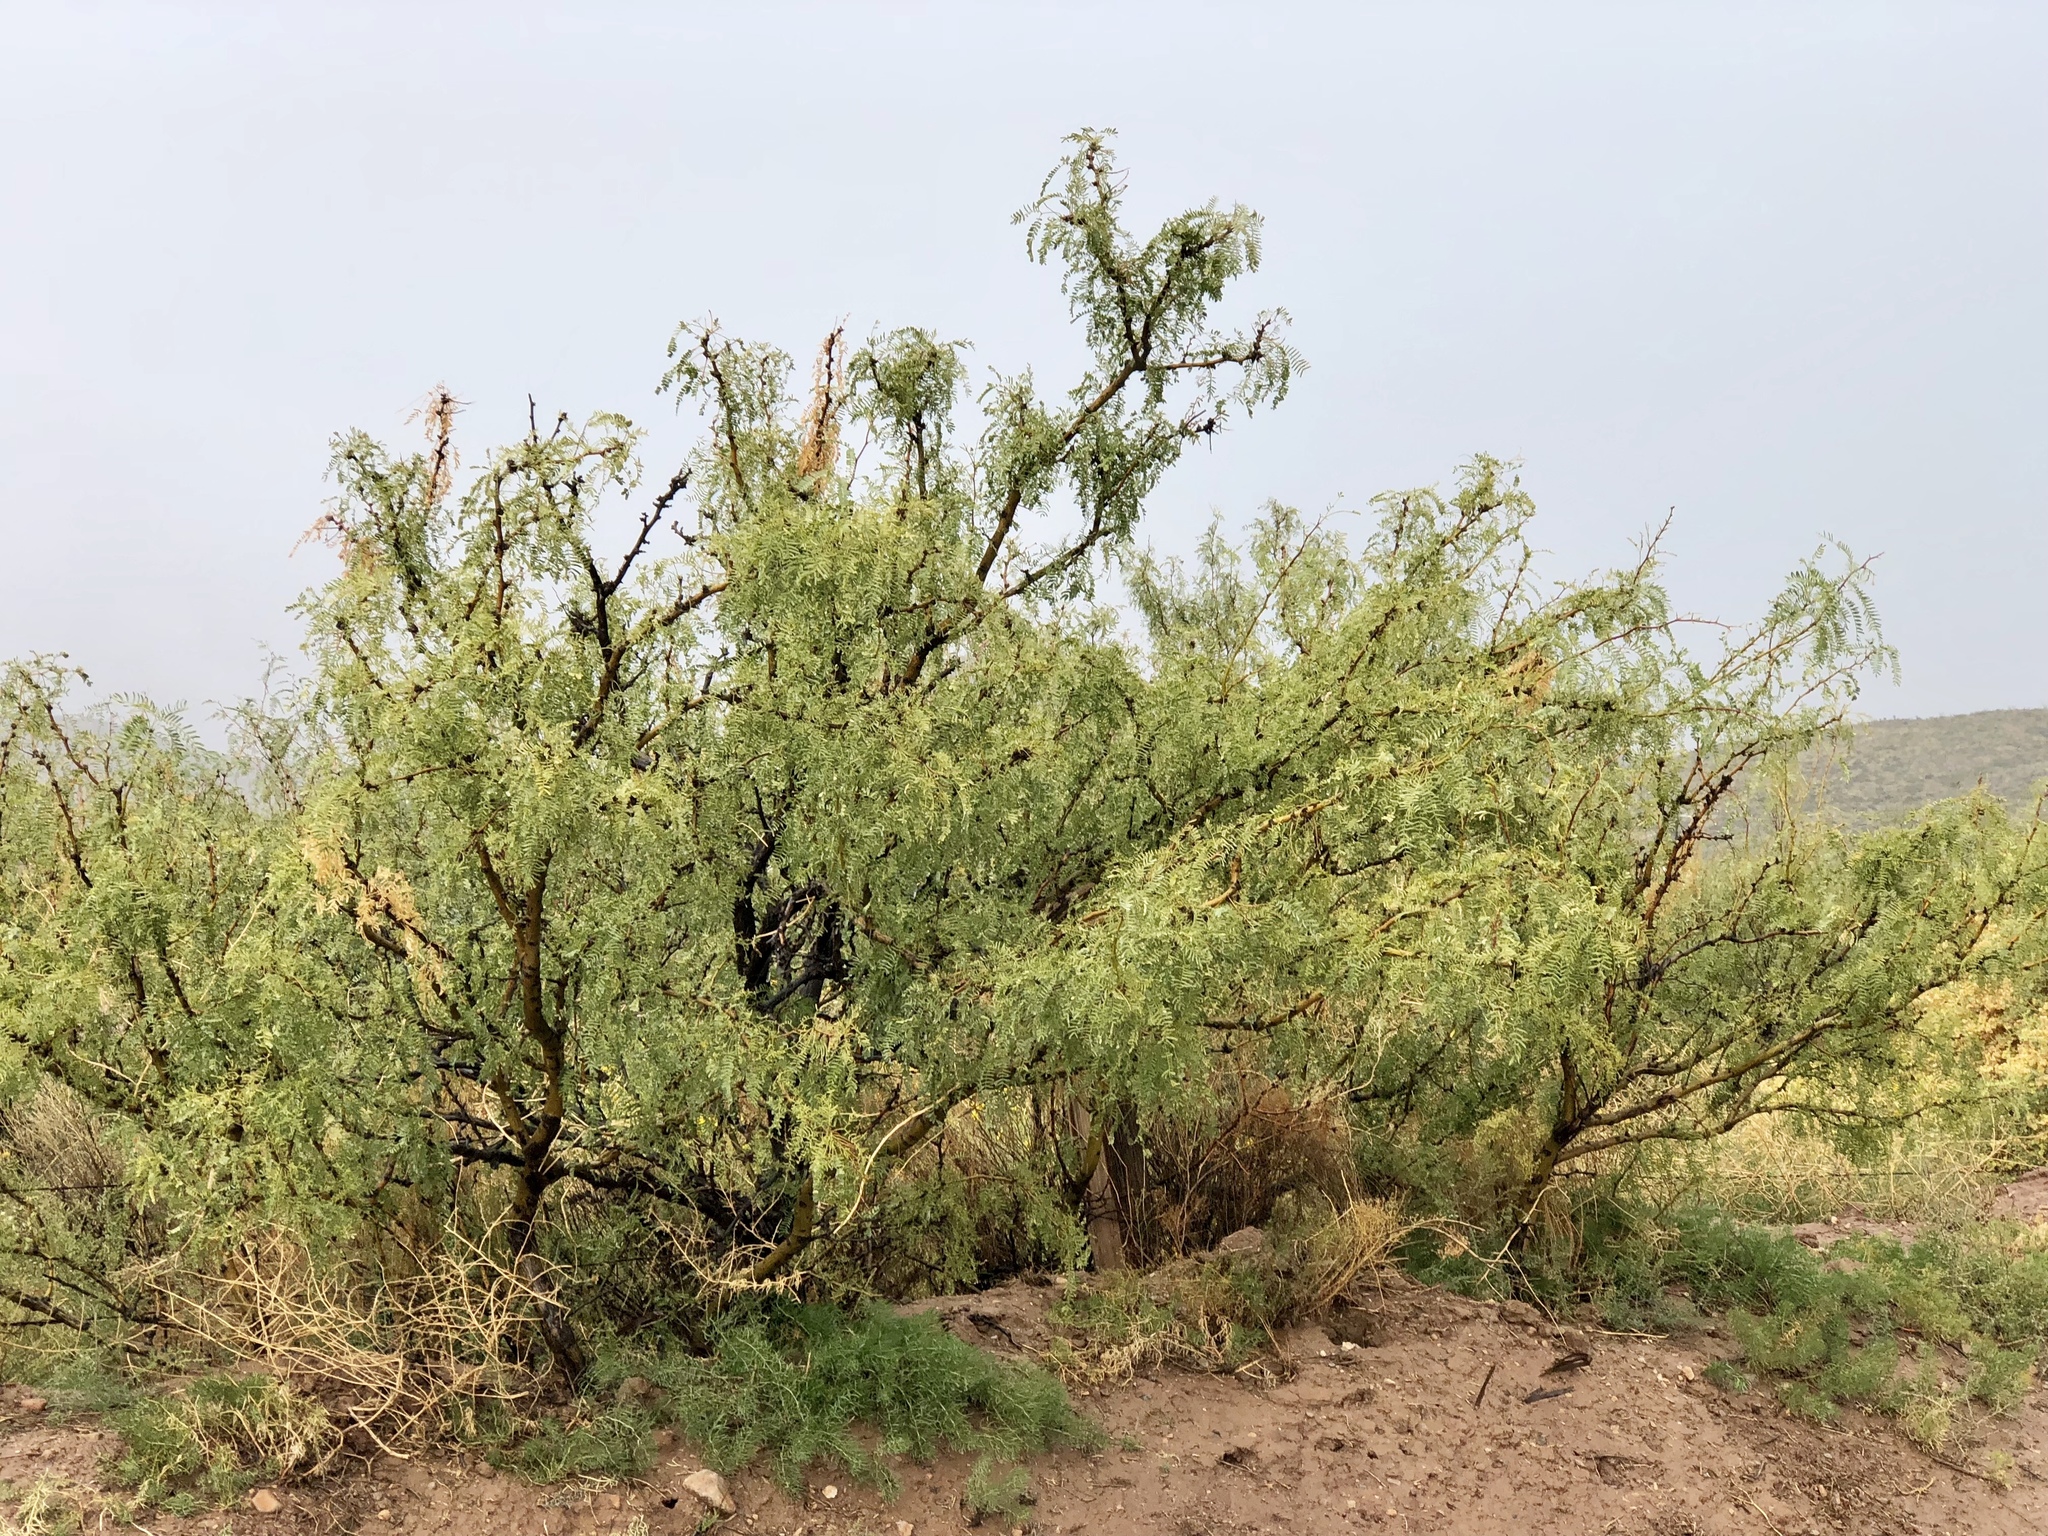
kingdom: Plantae
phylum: Tracheophyta
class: Magnoliopsida
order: Fabales
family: Fabaceae
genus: Prosopis
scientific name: Prosopis glandulosa
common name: Honey mesquite
